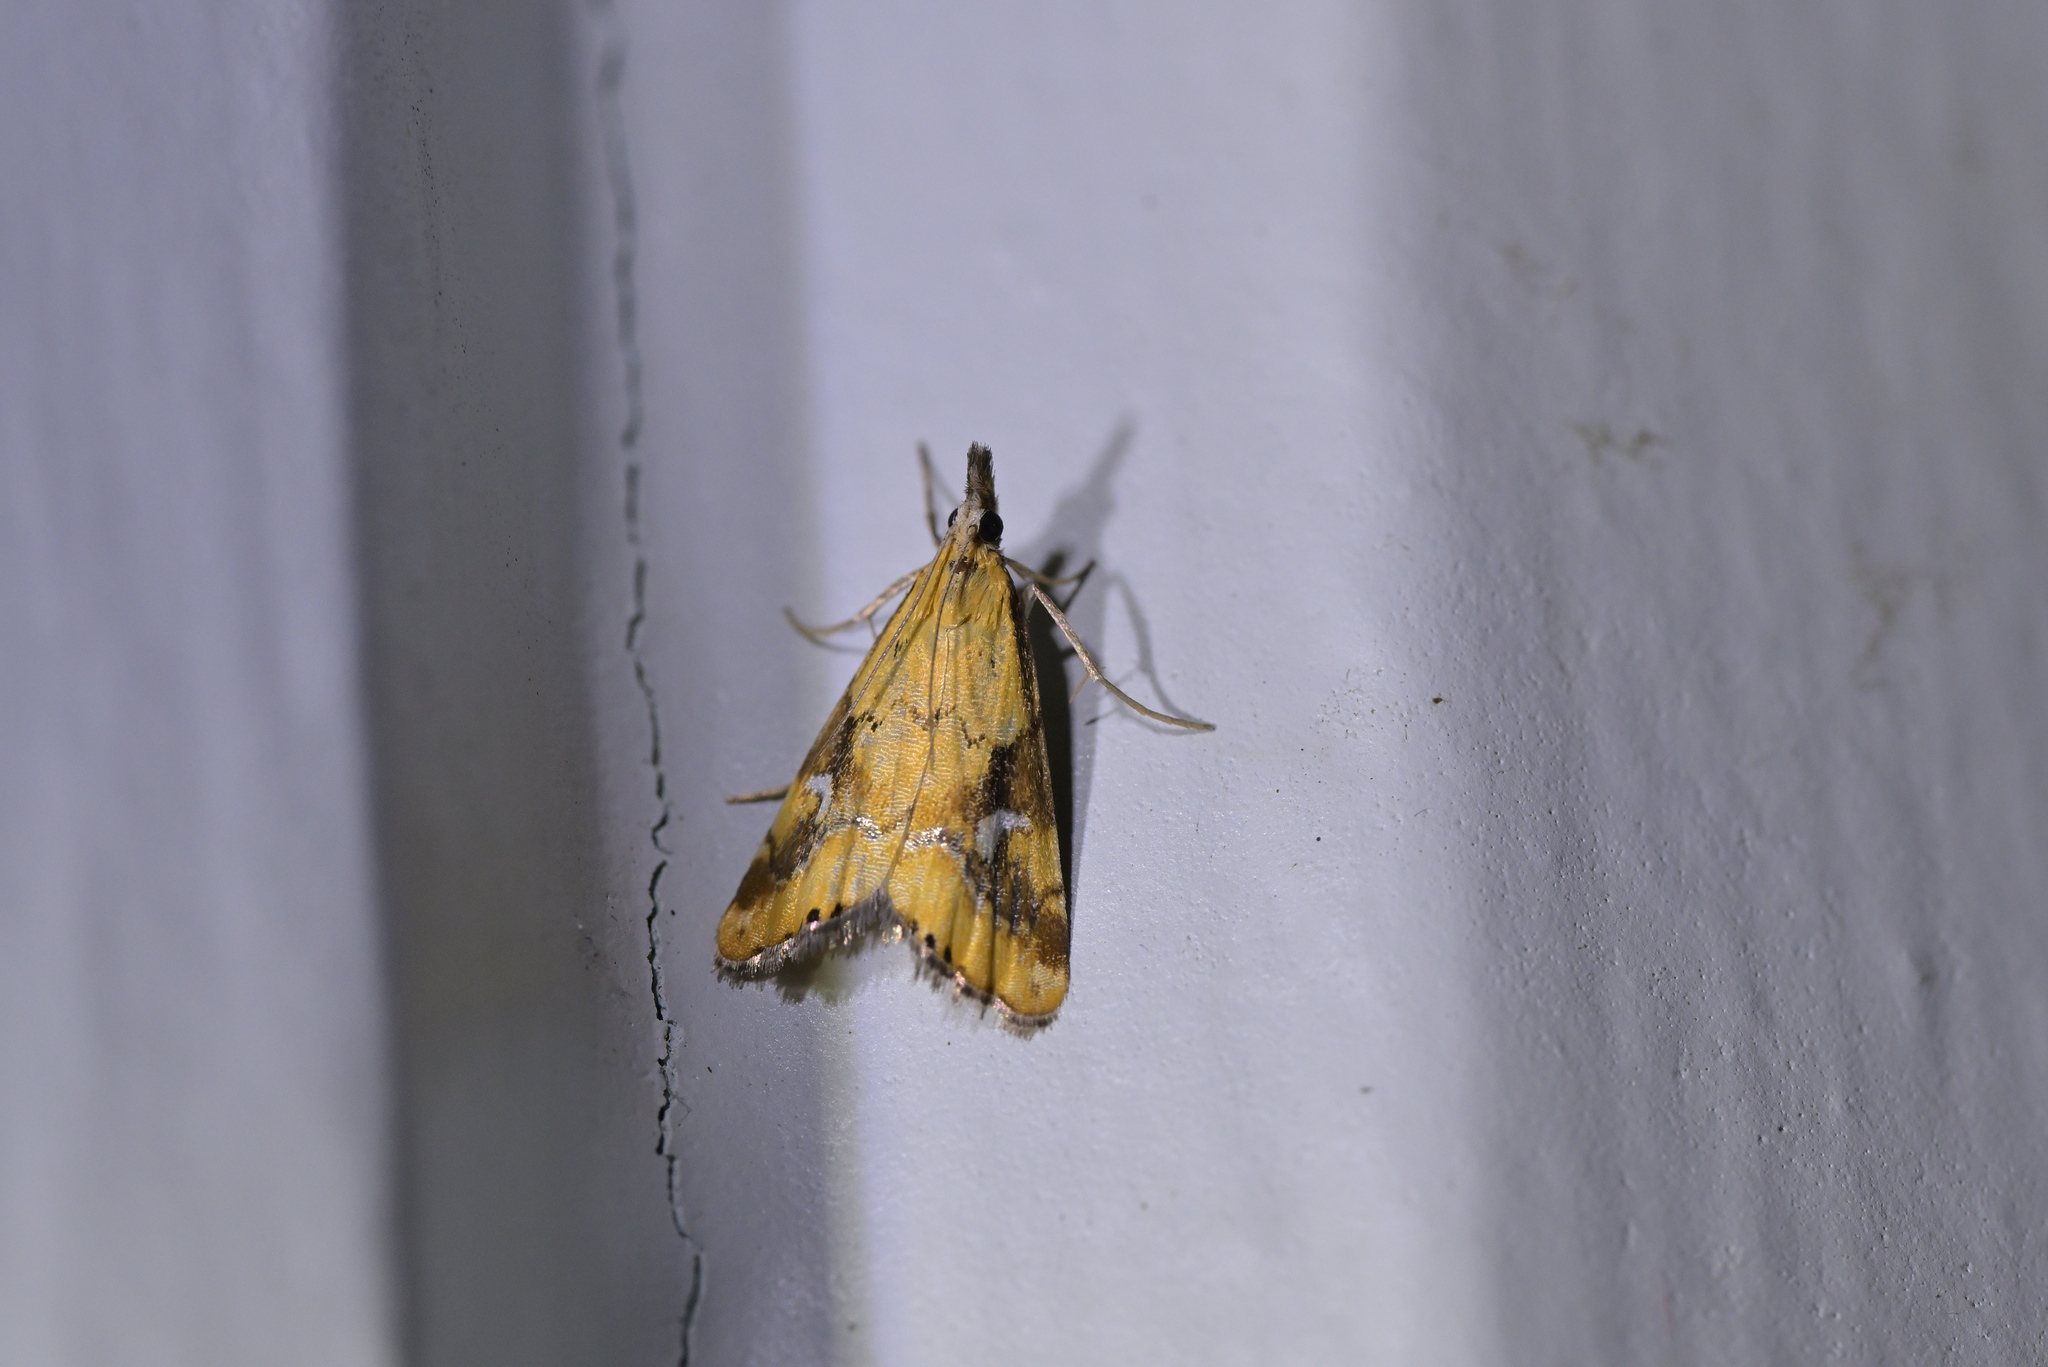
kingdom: Animalia
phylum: Arthropoda
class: Insecta
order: Lepidoptera
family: Crambidae
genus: Glaucocharis
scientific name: Glaucocharis lepidella
